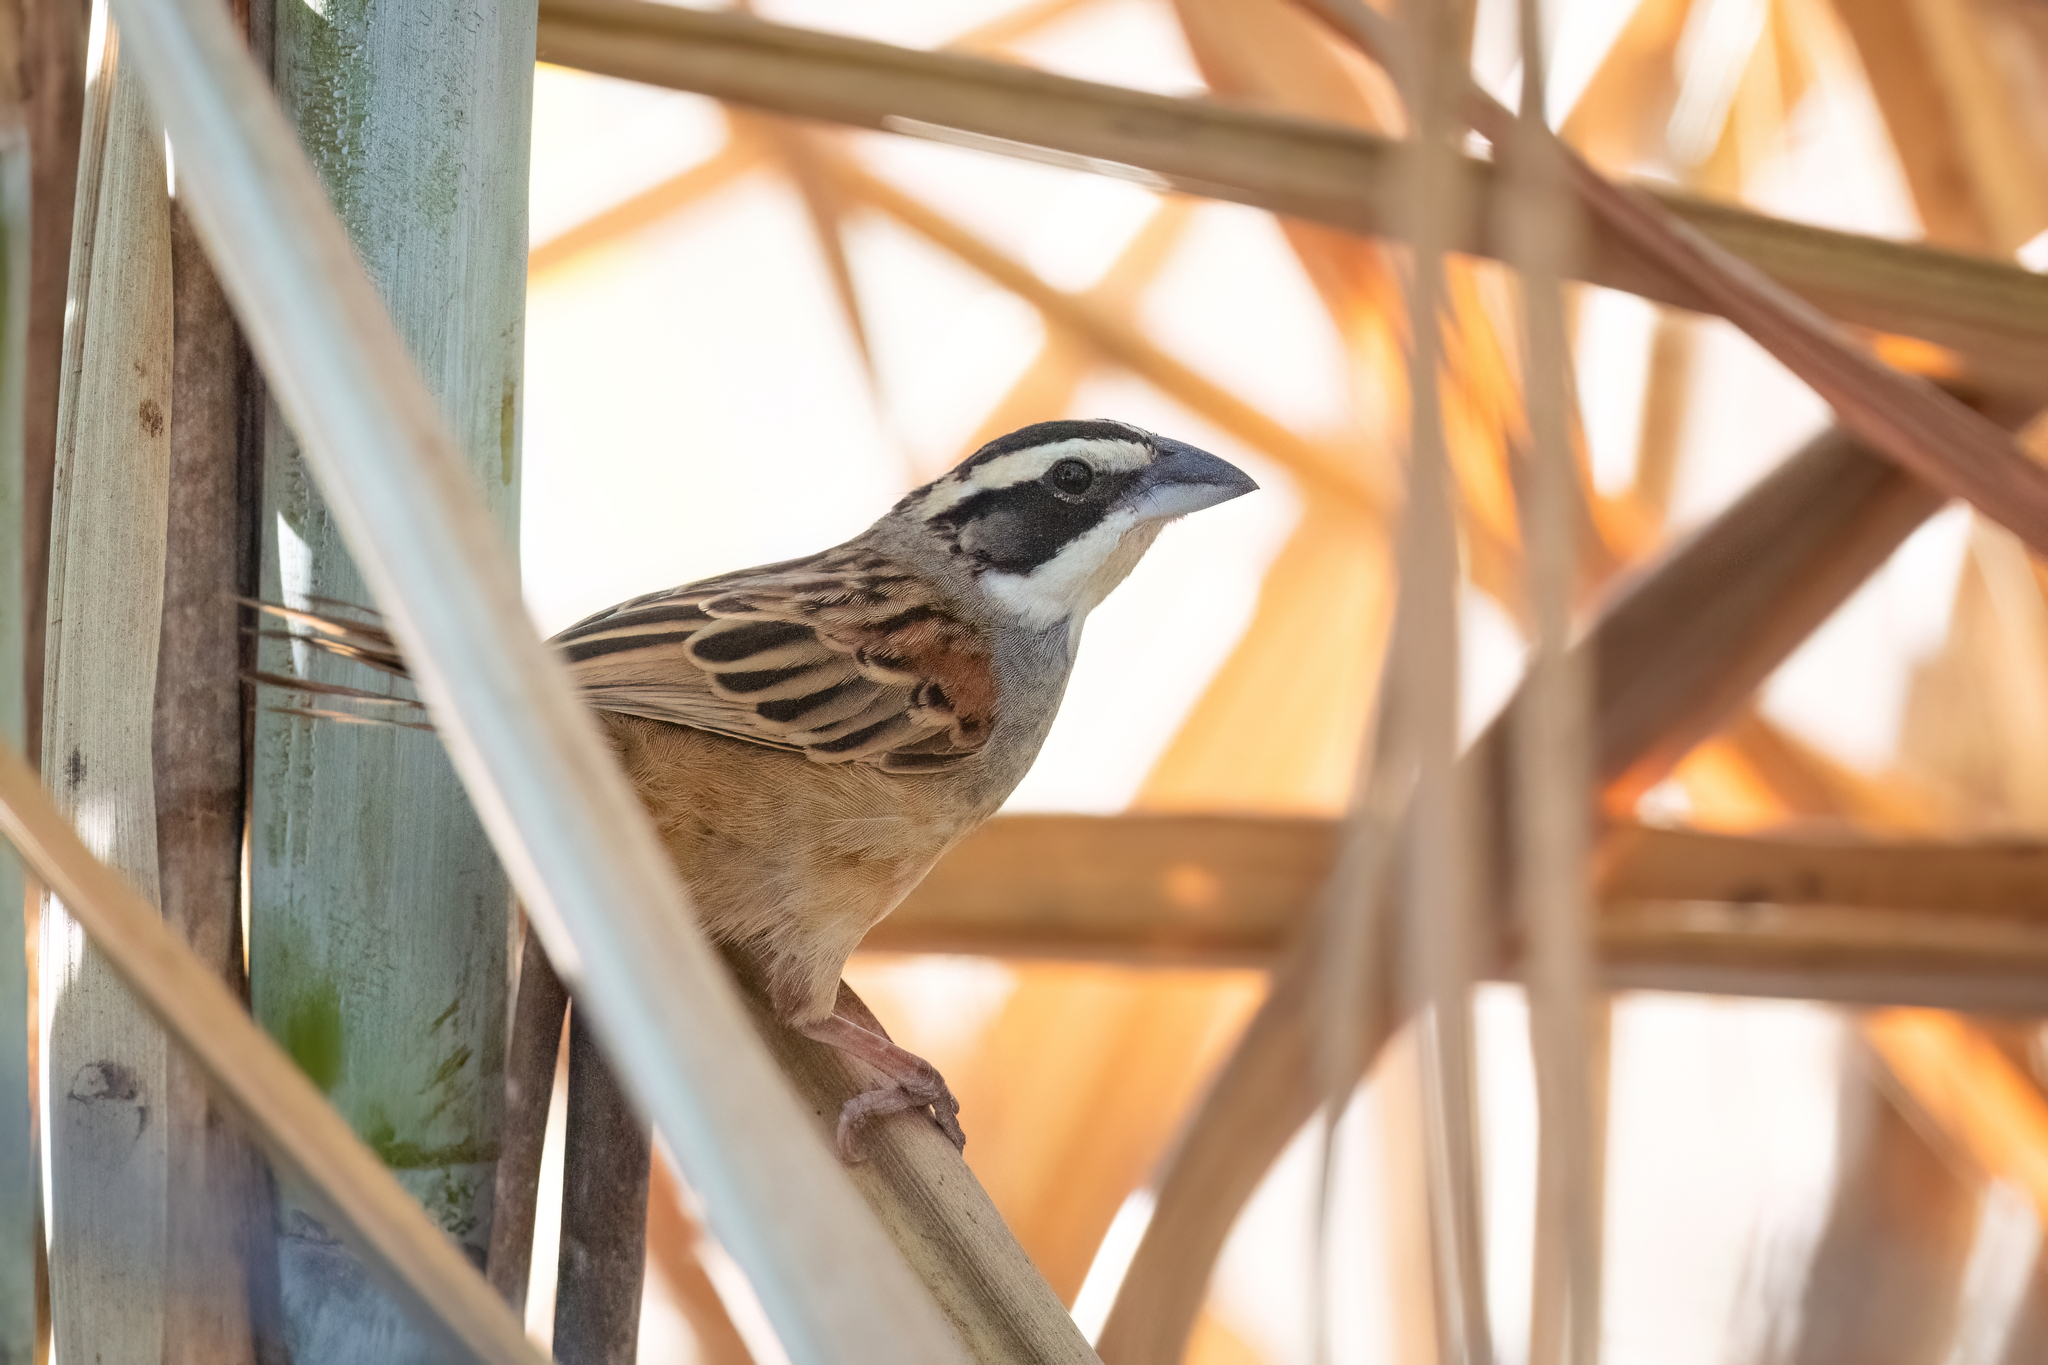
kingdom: Animalia
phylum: Chordata
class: Aves
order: Passeriformes
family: Passerellidae
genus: Peucaea
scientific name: Peucaea ruficauda
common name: Stripe-headed sparrow
